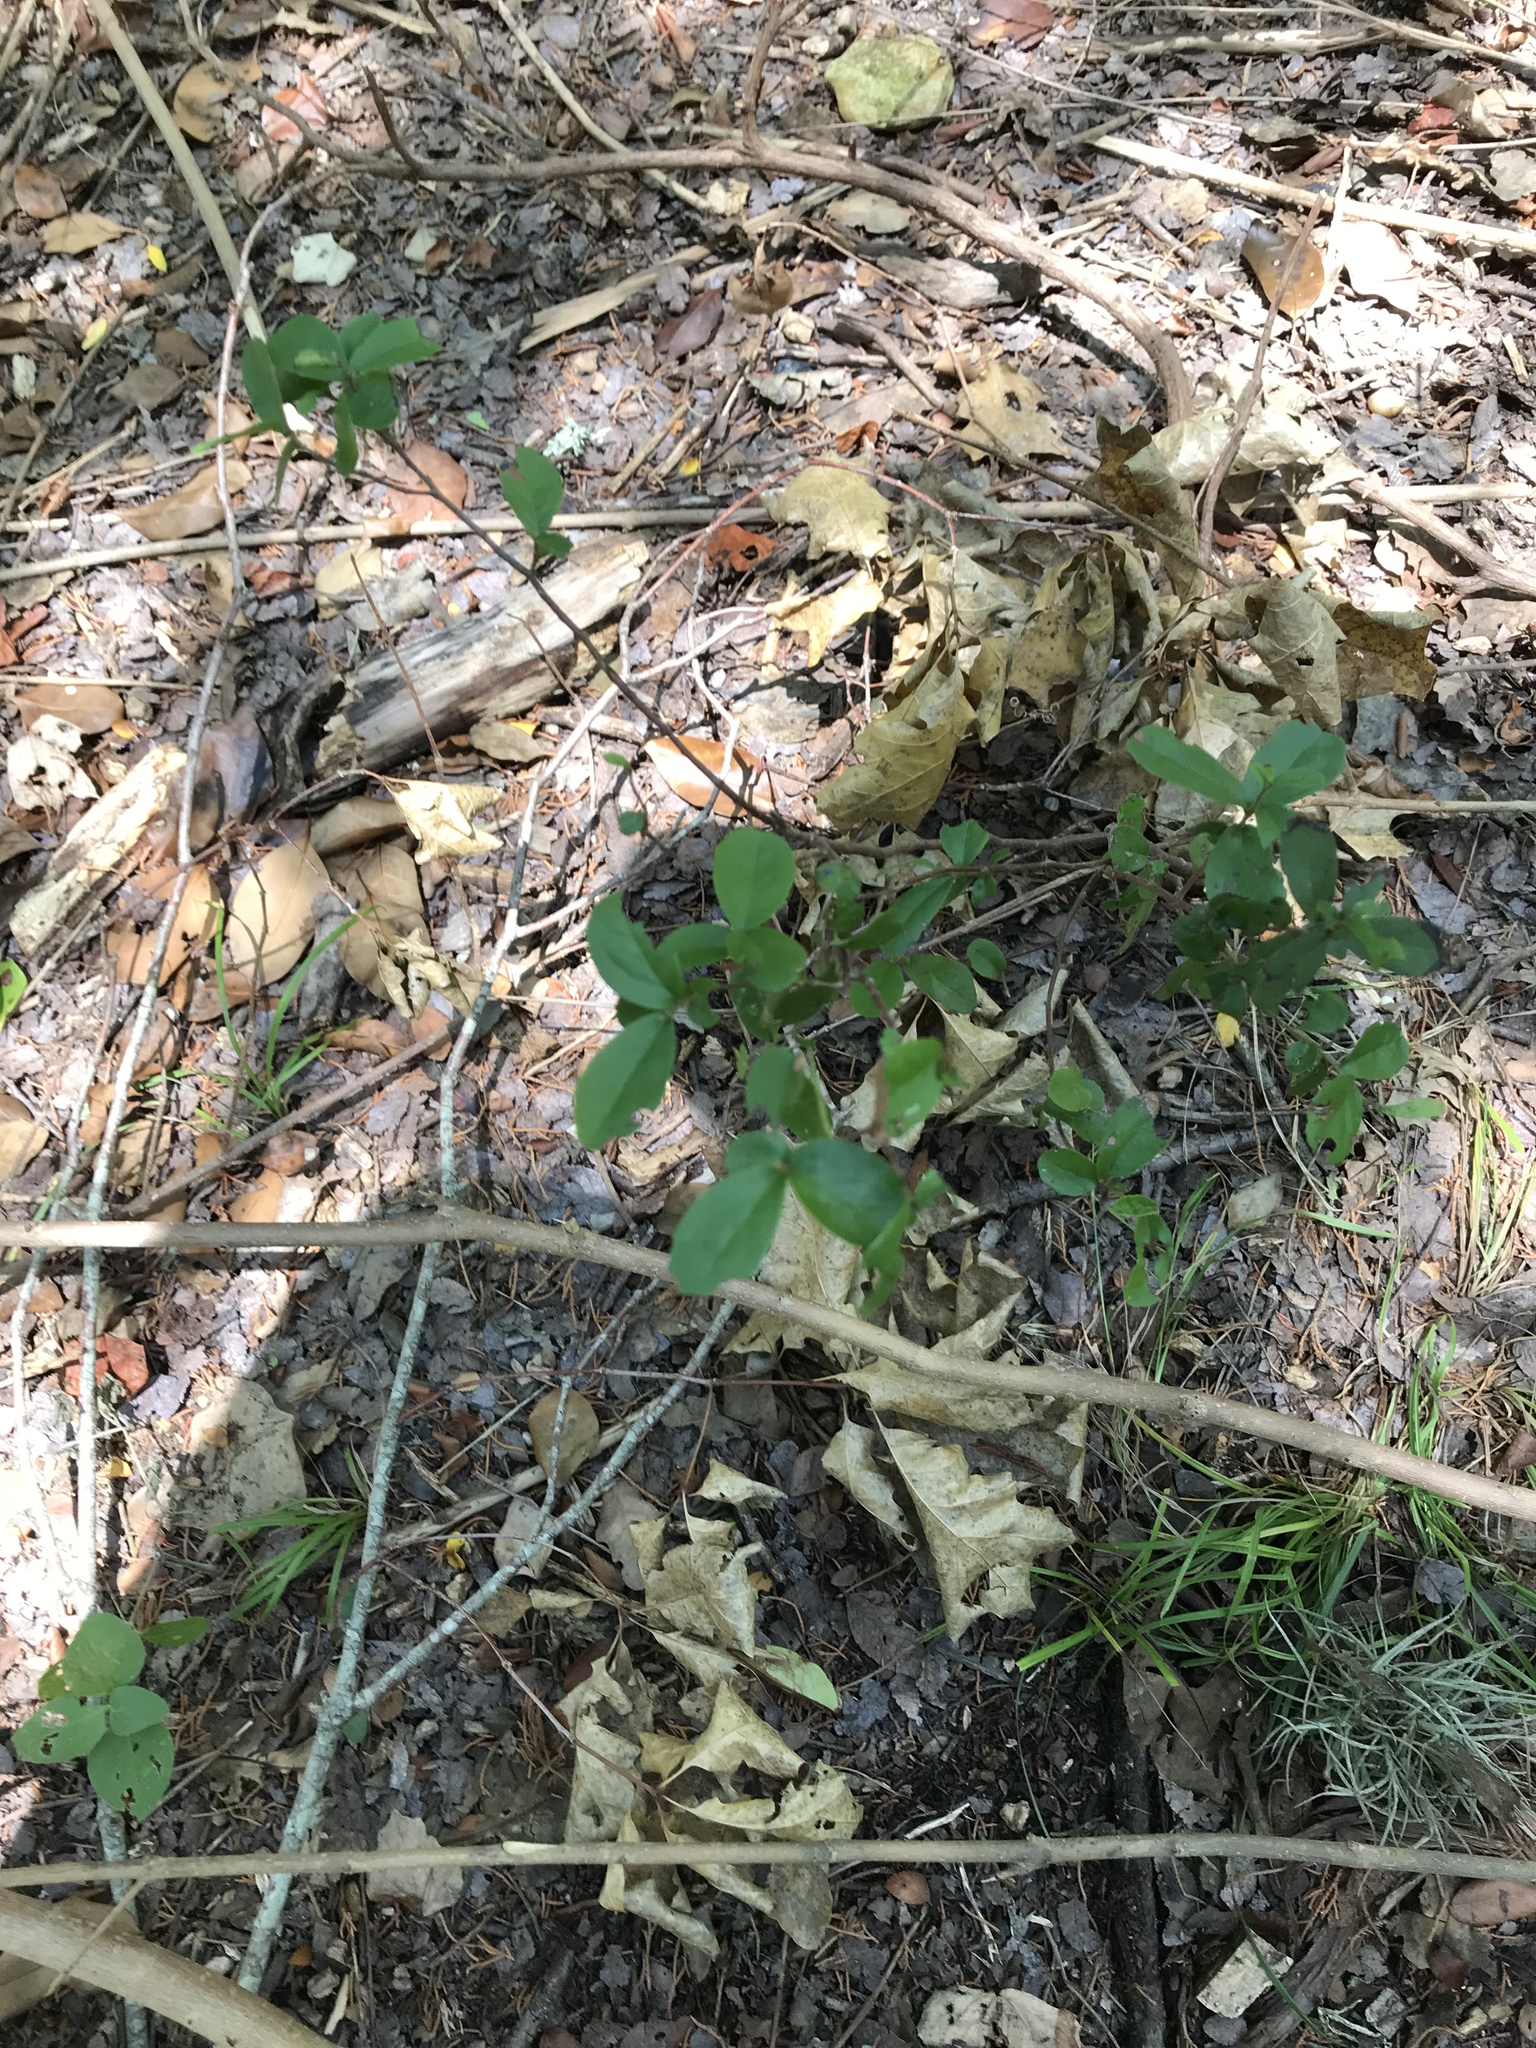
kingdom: Plantae
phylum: Tracheophyta
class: Magnoliopsida
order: Ericales
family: Ebenaceae
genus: Diospyros
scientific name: Diospyros texana
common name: Texas persimmon
